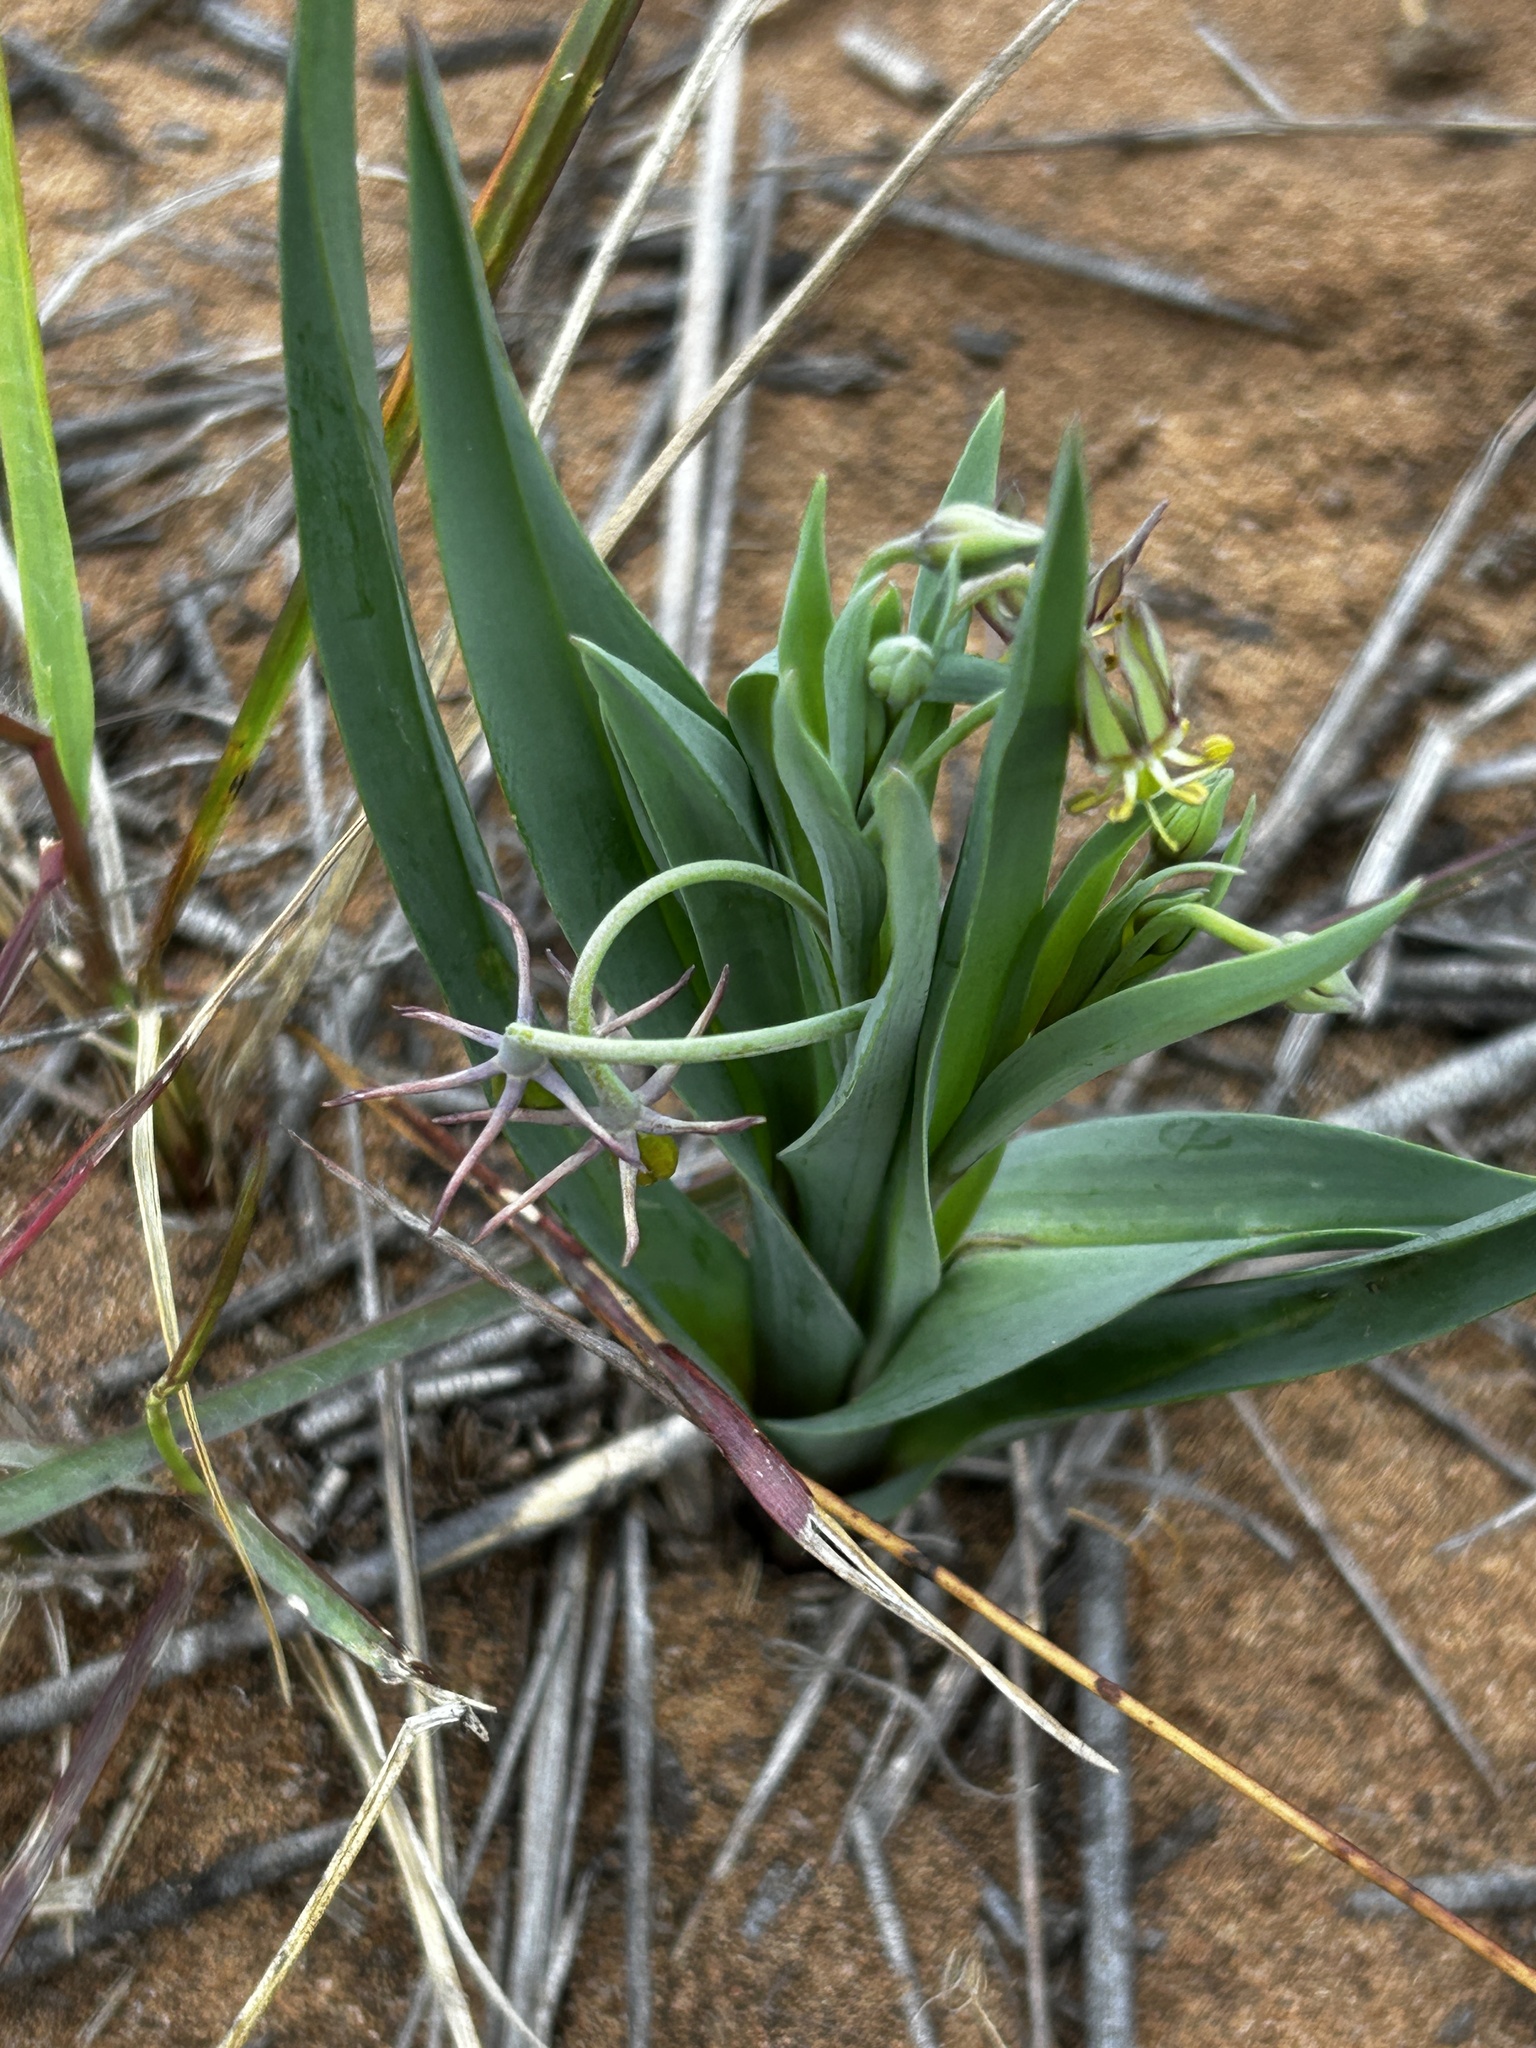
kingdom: Plantae
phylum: Tracheophyta
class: Liliopsida
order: Liliales
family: Colchicaceae
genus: Ornithoglossum
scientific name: Ornithoglossum viride
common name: Cape poison-onion
